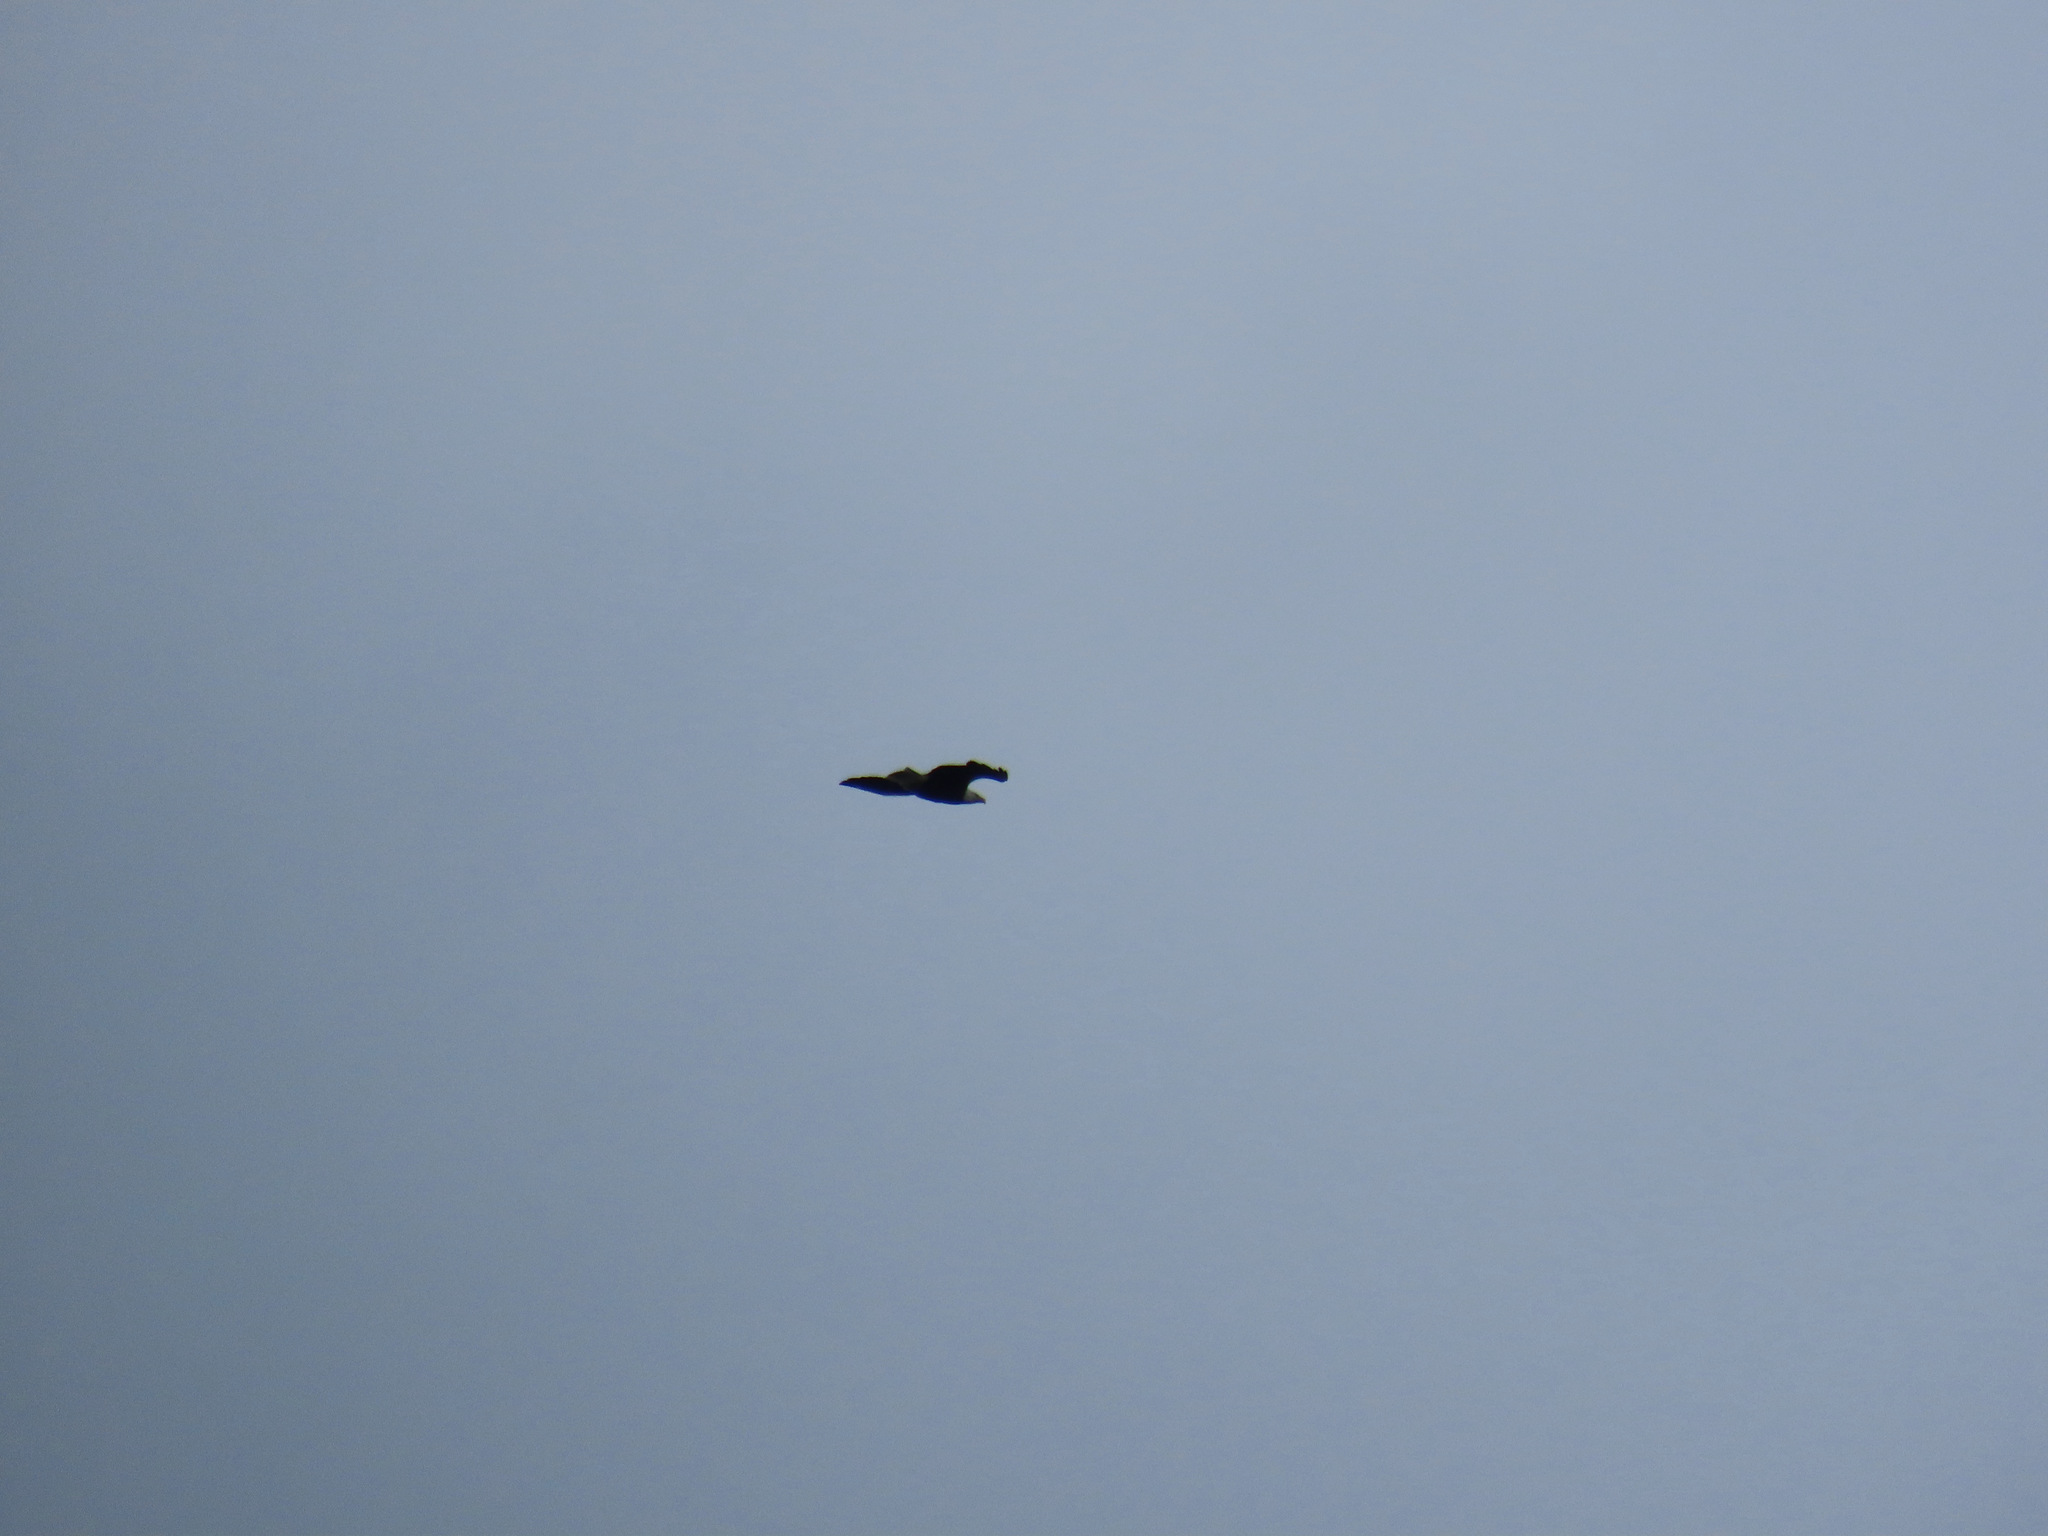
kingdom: Animalia
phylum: Chordata
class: Aves
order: Accipitriformes
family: Accipitridae
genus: Haliaeetus
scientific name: Haliaeetus leucocephalus
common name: Bald eagle
